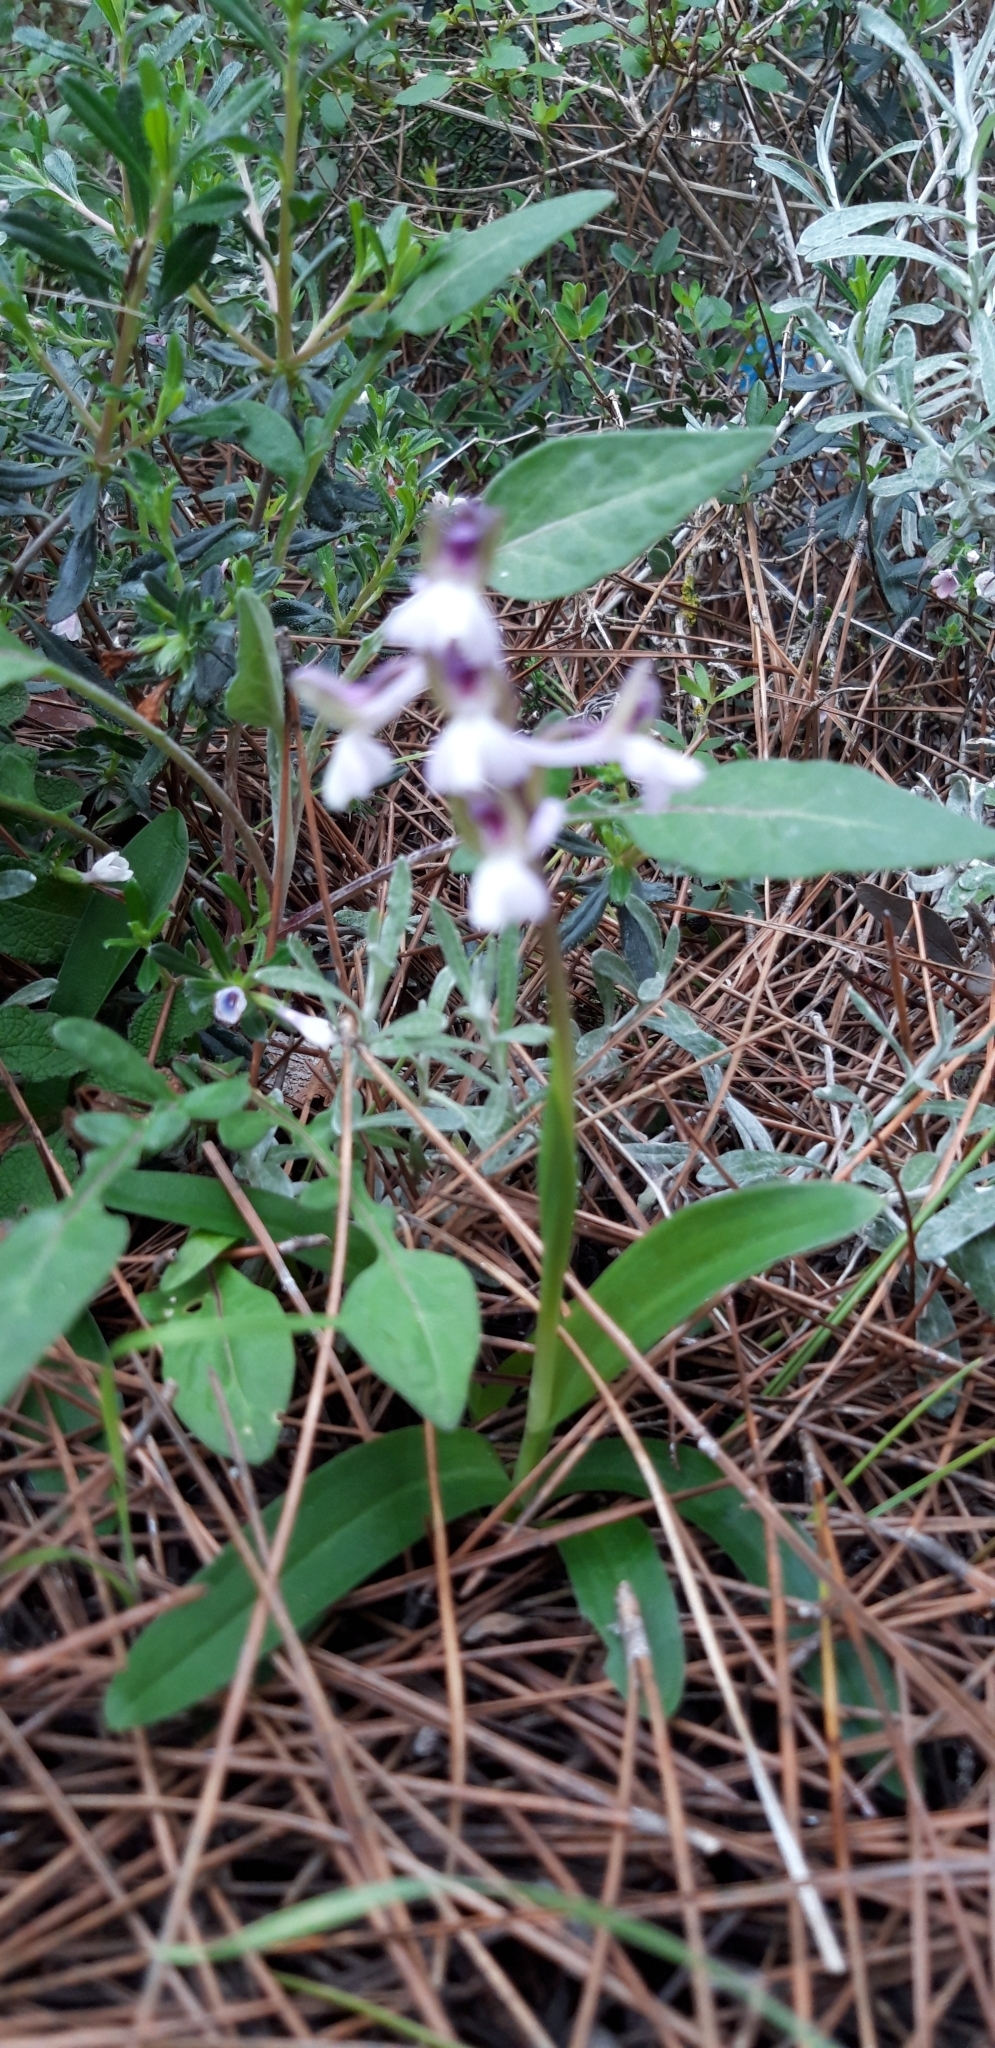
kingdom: Plantae
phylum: Tracheophyta
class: Liliopsida
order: Asparagales
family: Orchidaceae
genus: Anacamptis
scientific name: Anacamptis morio
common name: Green-winged orchid
